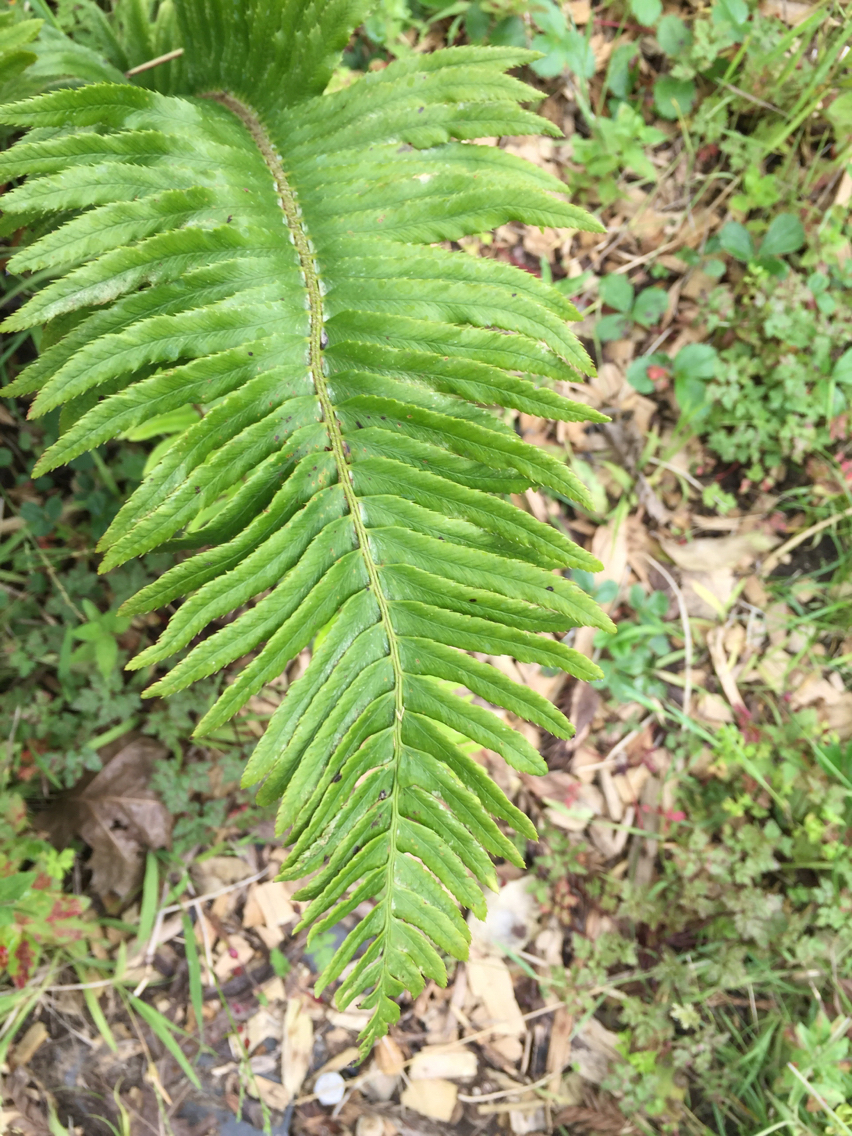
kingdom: Plantae
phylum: Tracheophyta
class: Polypodiopsida
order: Polypodiales
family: Dryopteridaceae
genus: Polystichum
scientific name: Polystichum munitum
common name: Western sword-fern
